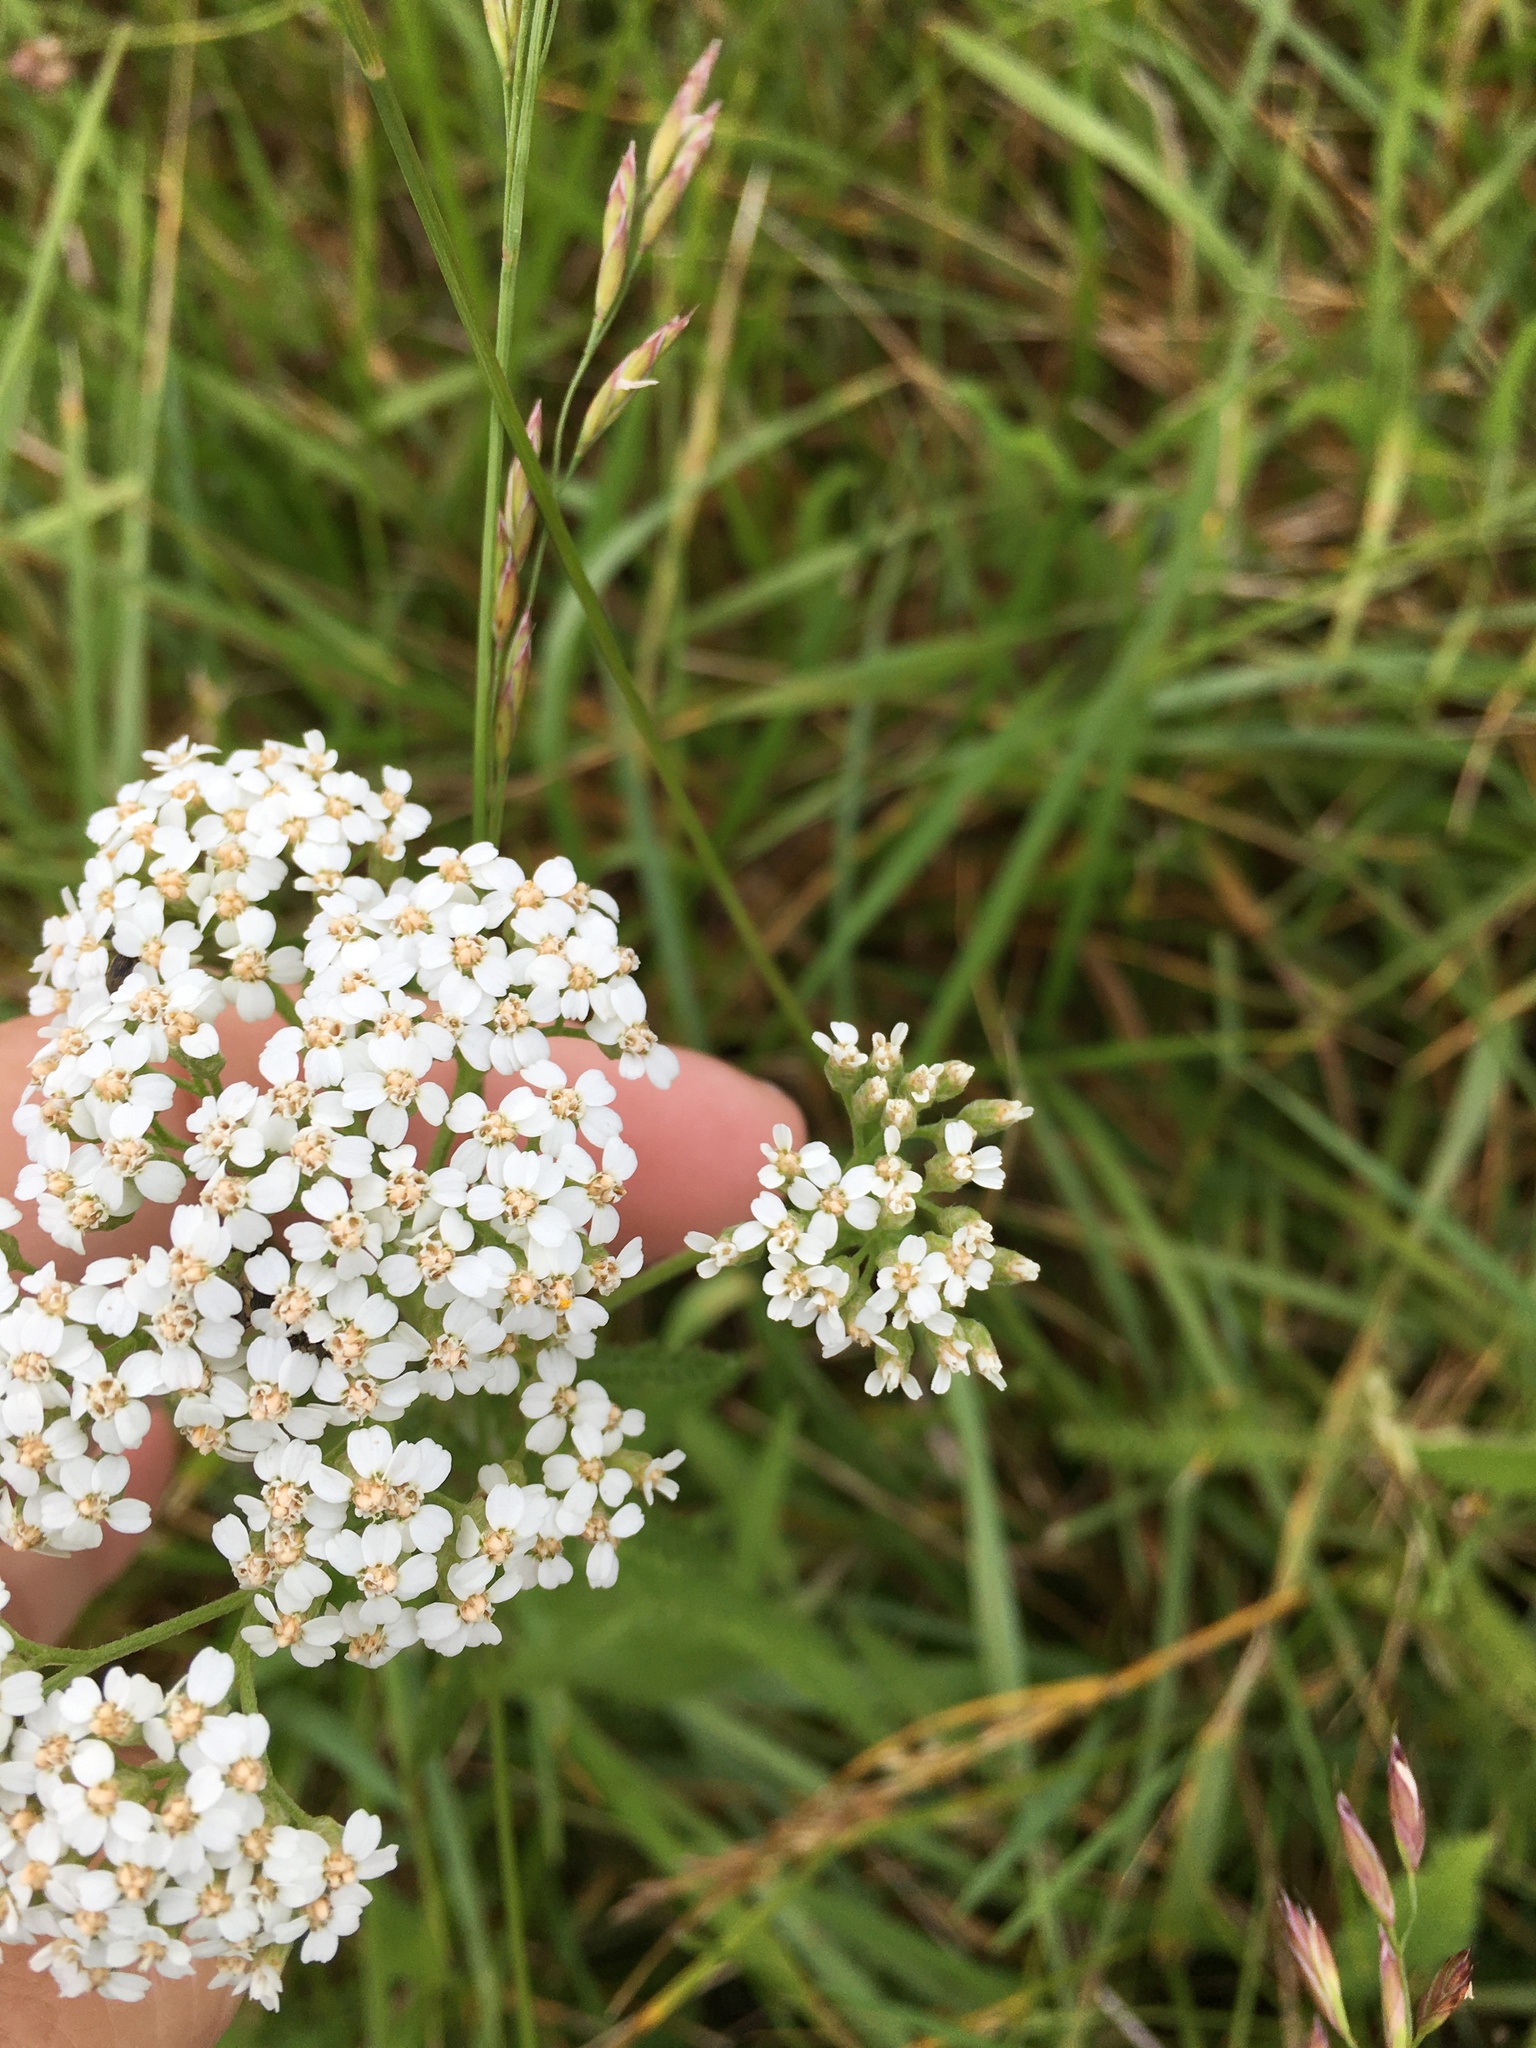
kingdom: Plantae
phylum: Tracheophyta
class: Magnoliopsida
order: Asterales
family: Asteraceae
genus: Achillea
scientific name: Achillea millefolium
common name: Yarrow
